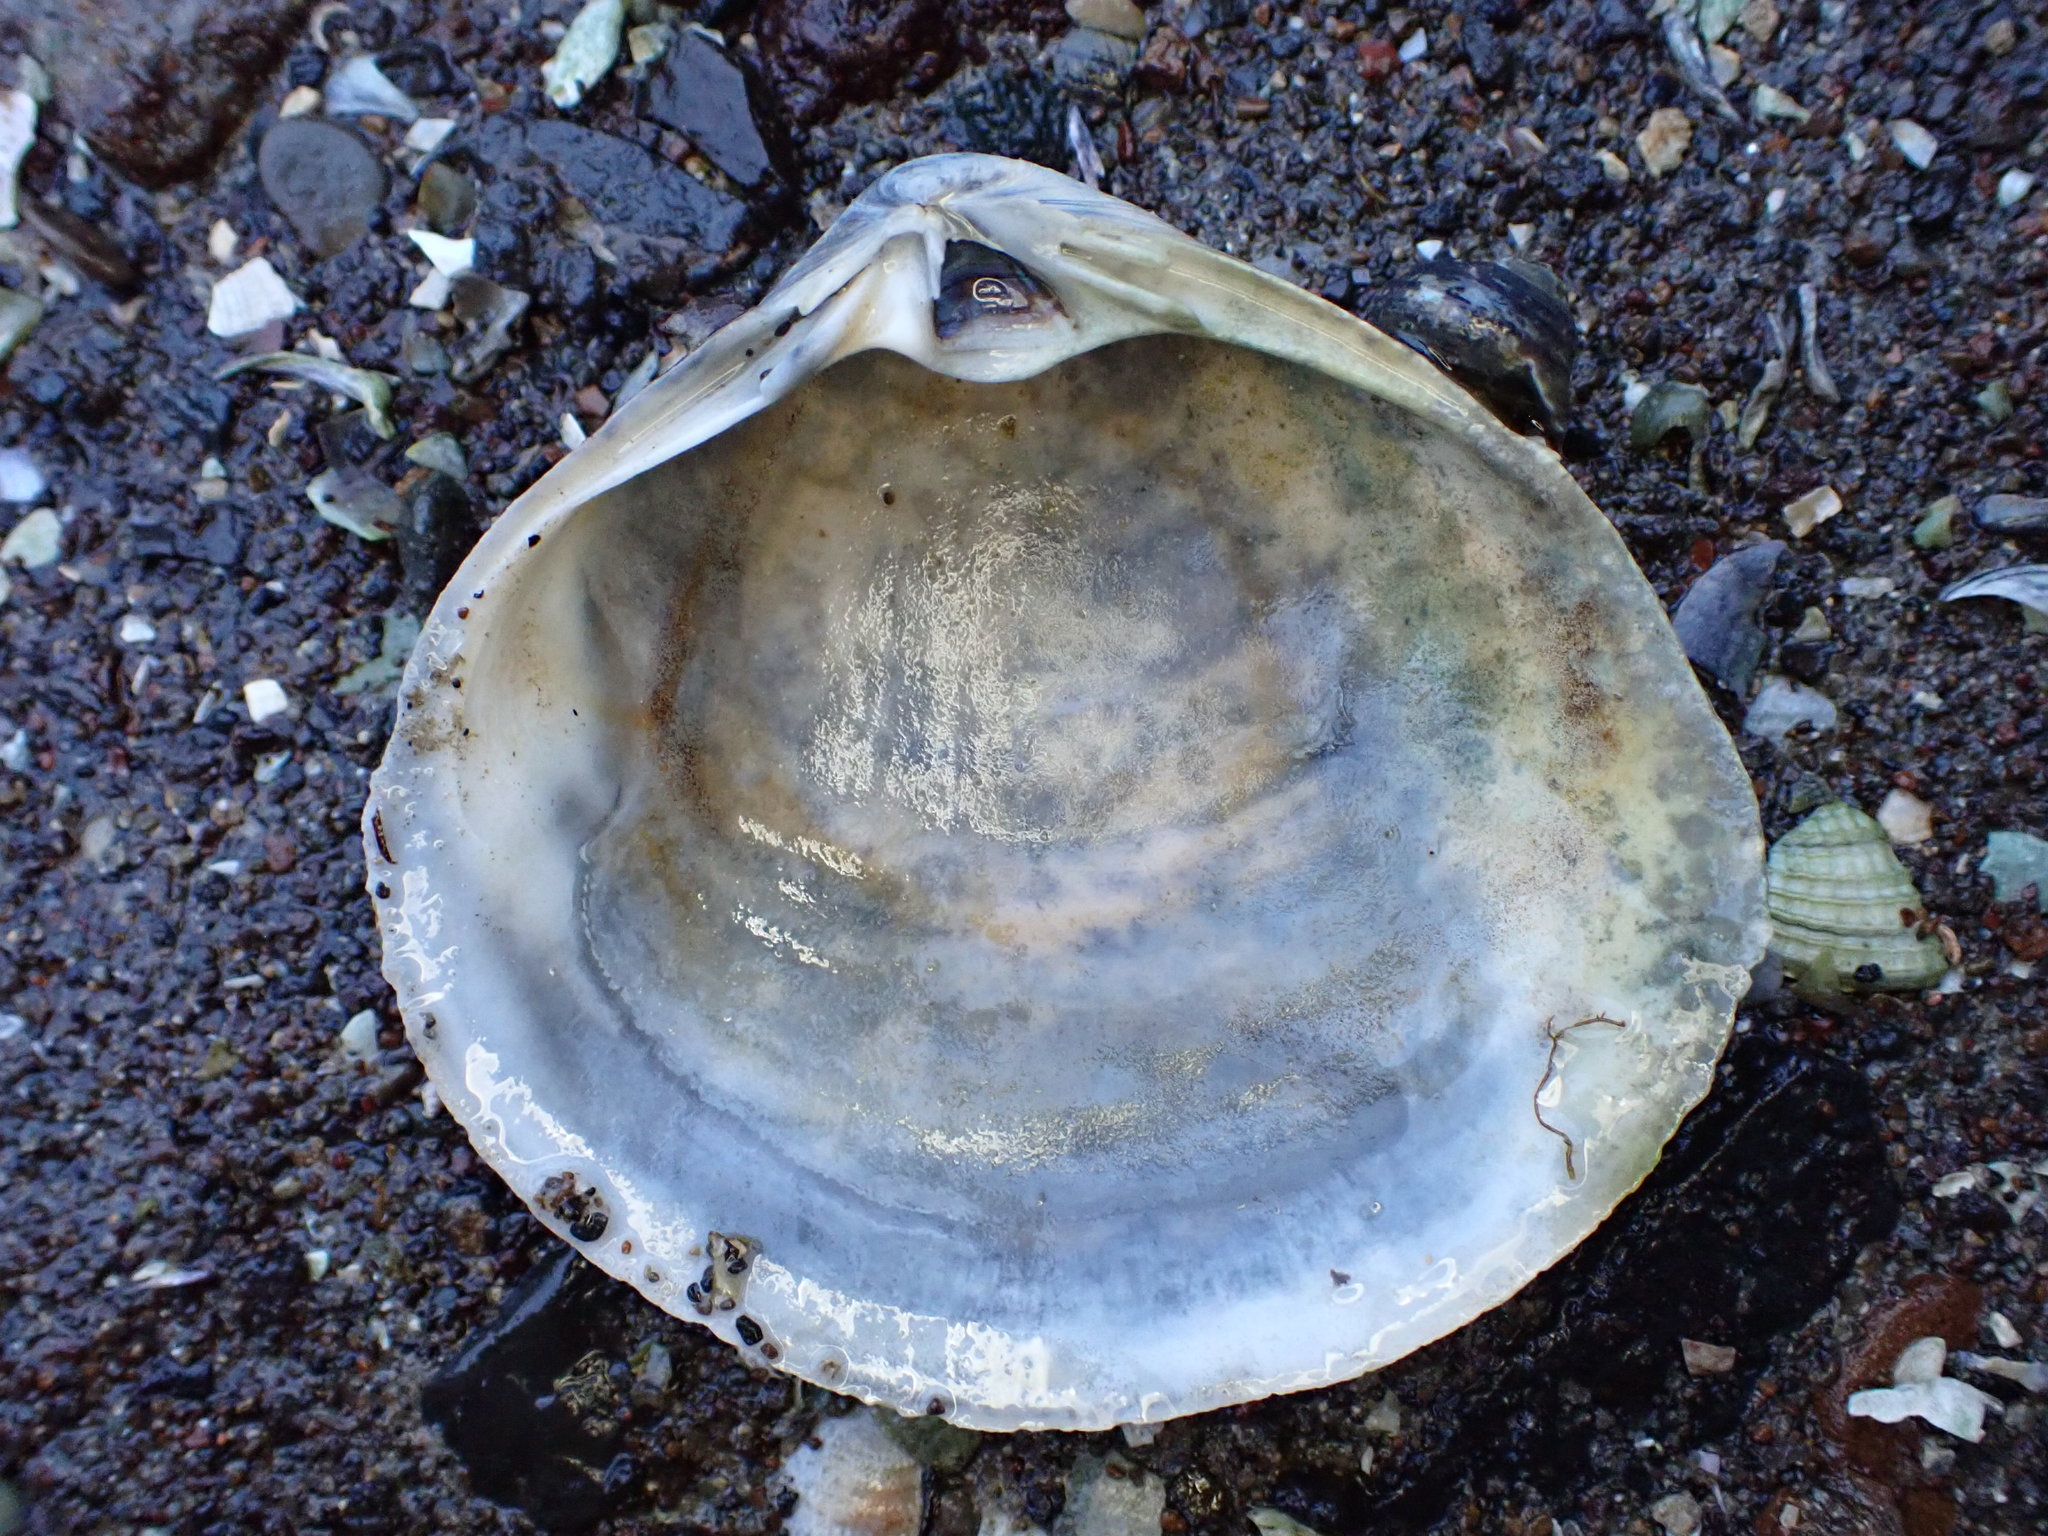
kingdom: Animalia
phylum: Mollusca
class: Bivalvia
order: Venerida
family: Mactridae
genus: Cyclomactra
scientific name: Cyclomactra ovata
